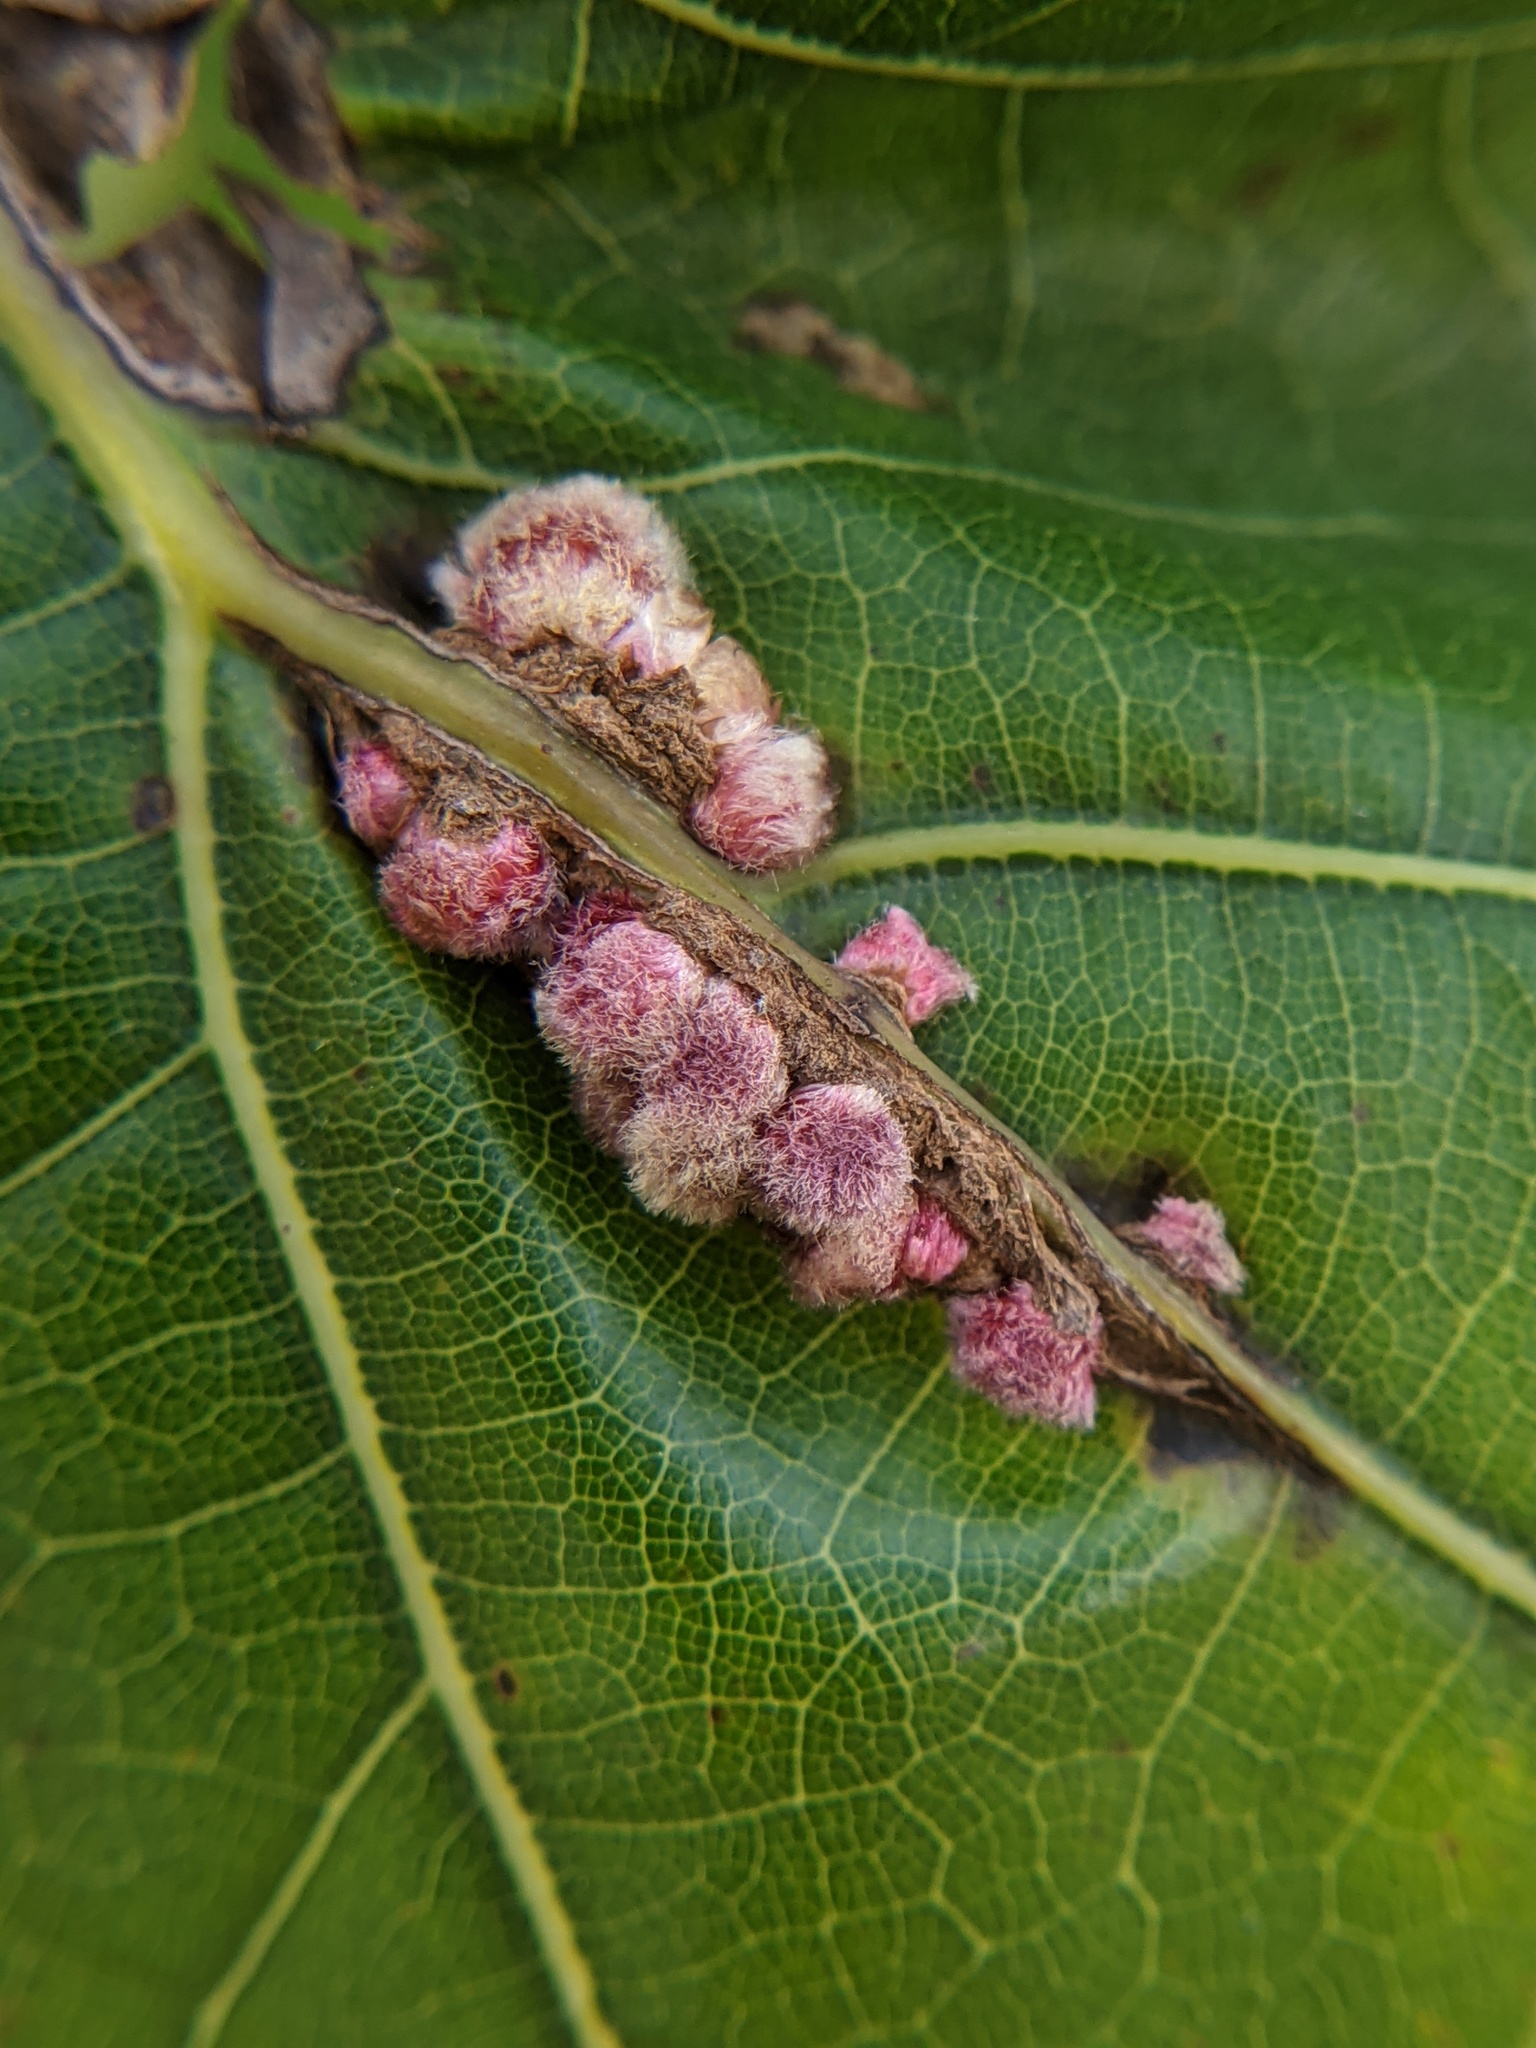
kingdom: Animalia
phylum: Arthropoda
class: Insecta
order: Hymenoptera
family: Cynipidae
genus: Callirhytis
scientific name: Callirhytis
